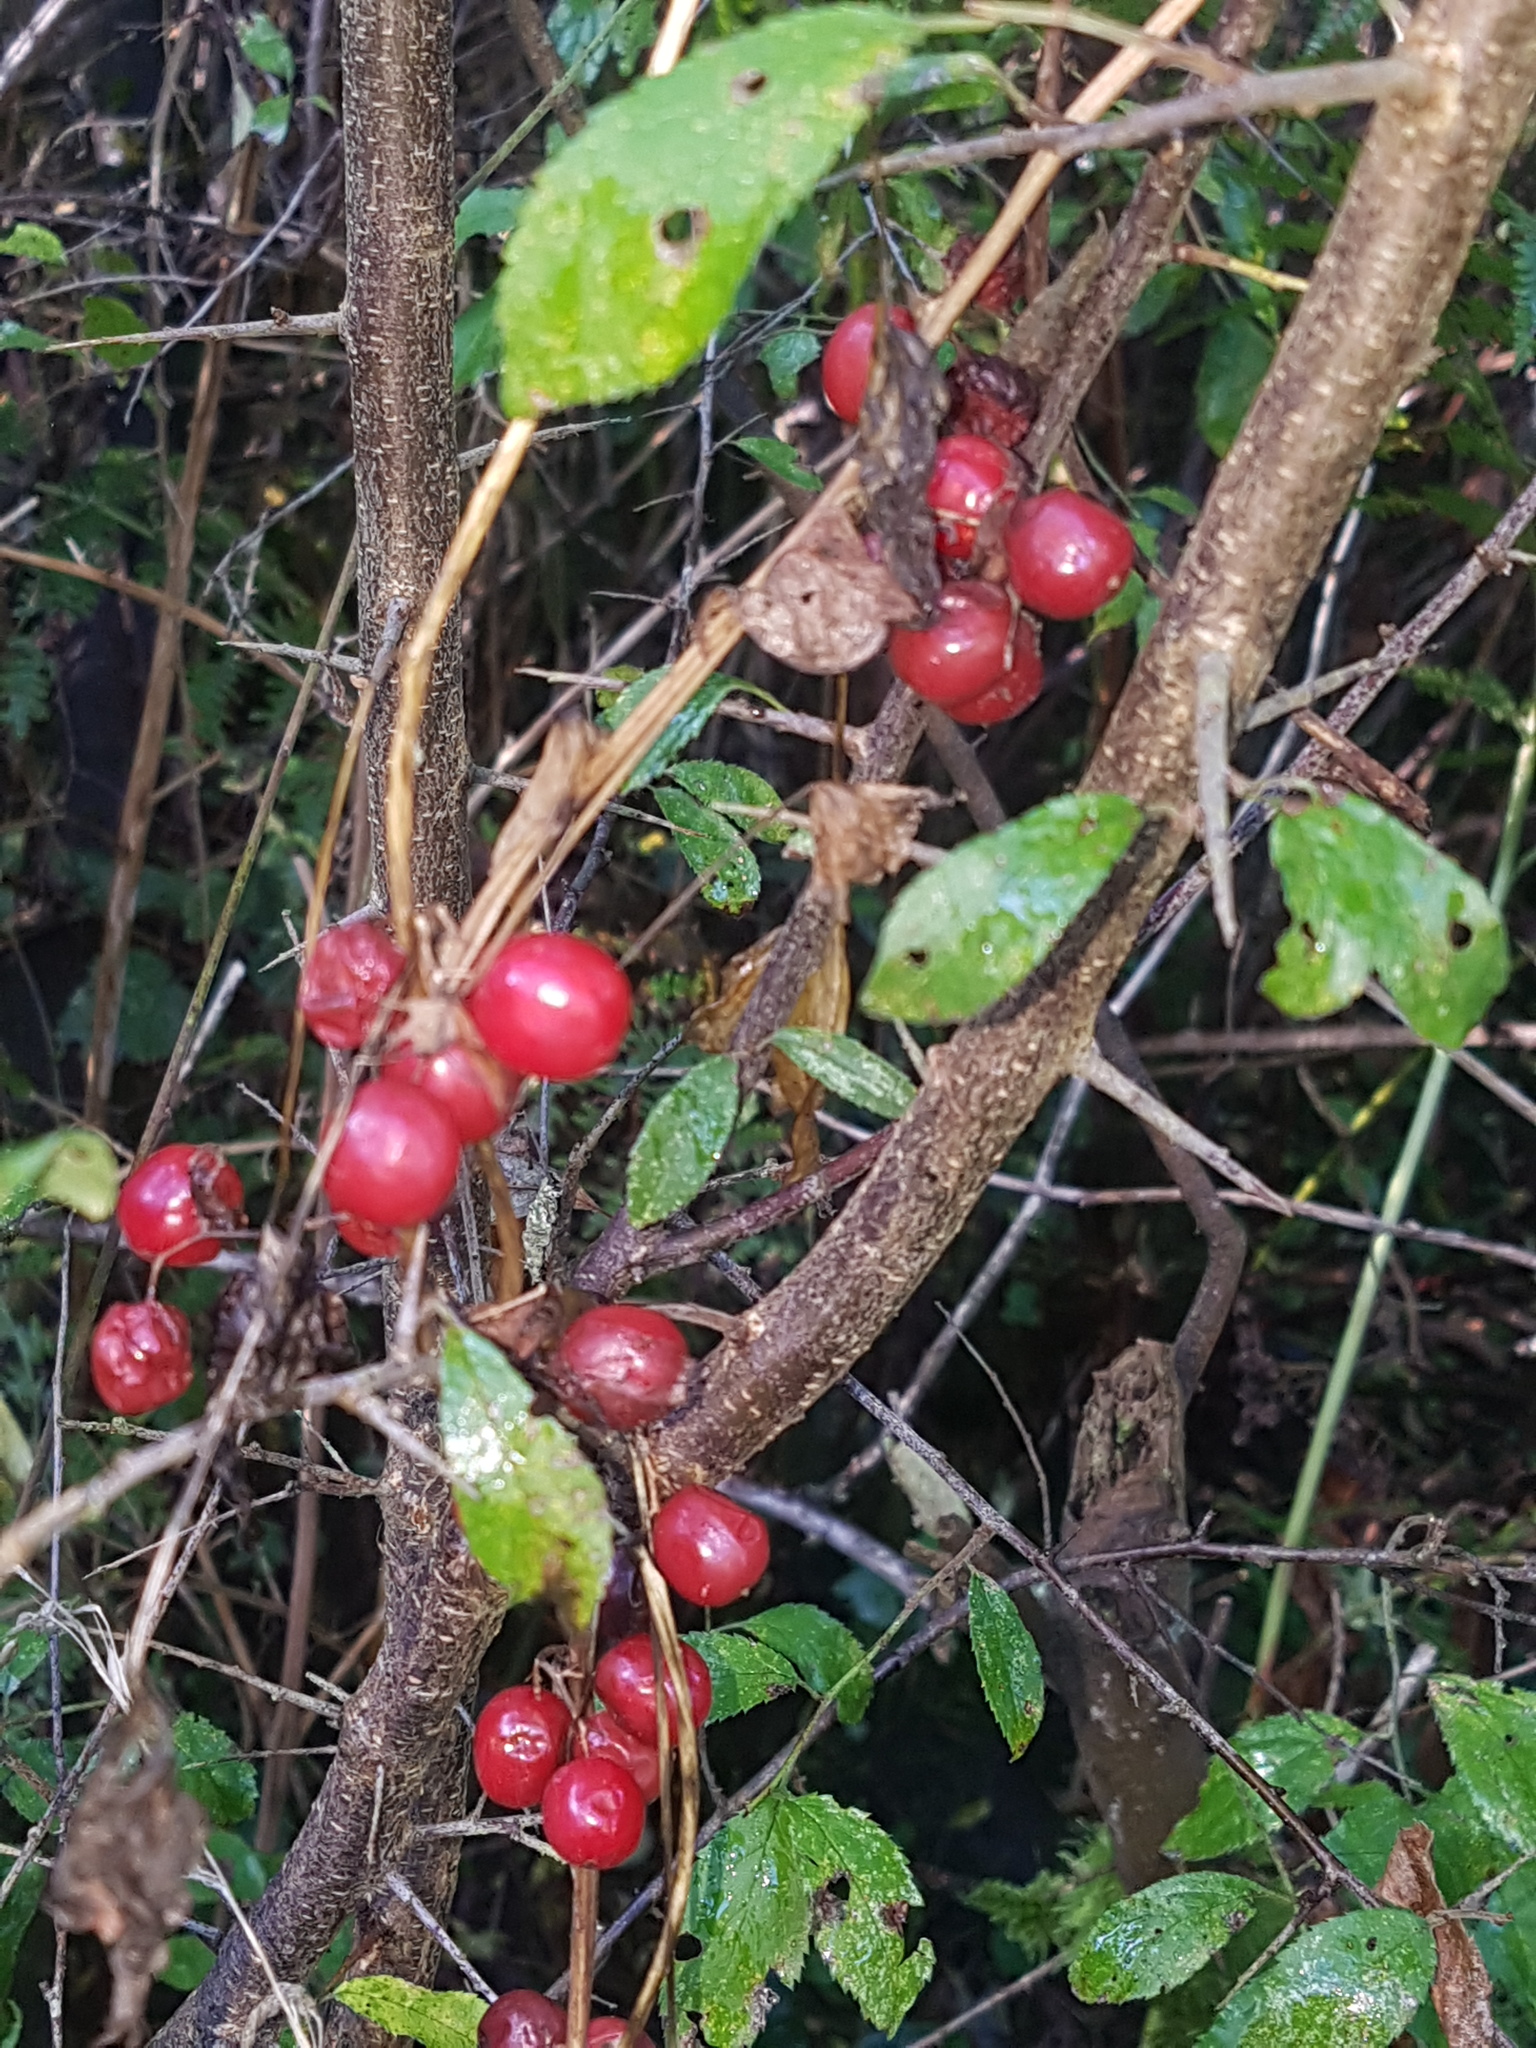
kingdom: Plantae
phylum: Tracheophyta
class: Liliopsida
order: Dioscoreales
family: Dioscoreaceae
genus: Dioscorea
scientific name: Dioscorea communis
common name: Black-bindweed
